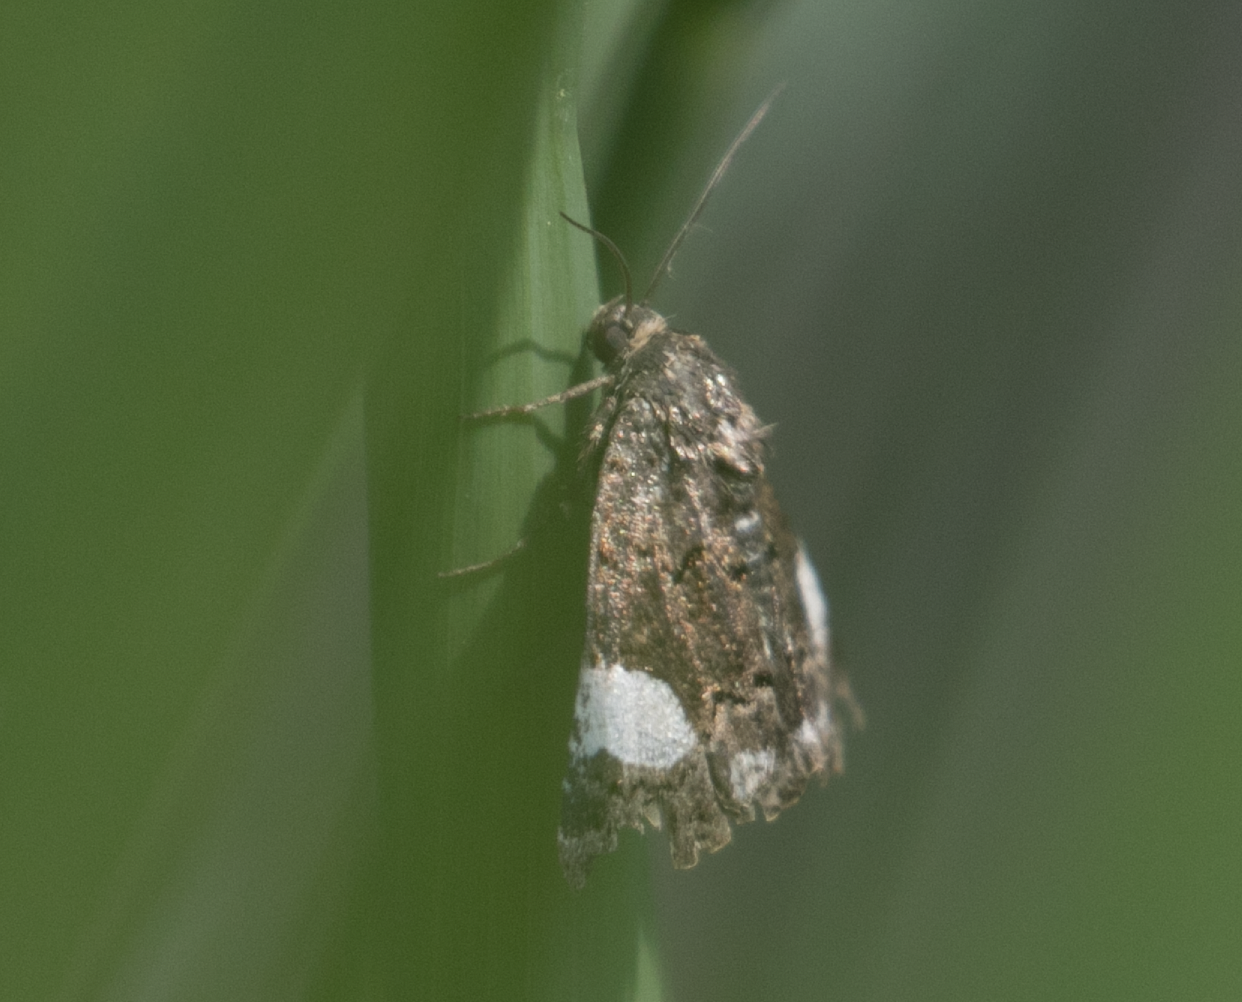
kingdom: Animalia
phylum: Arthropoda
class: Insecta
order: Lepidoptera
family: Erebidae
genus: Tyta
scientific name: Tyta luctuosa
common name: Four-spotted
